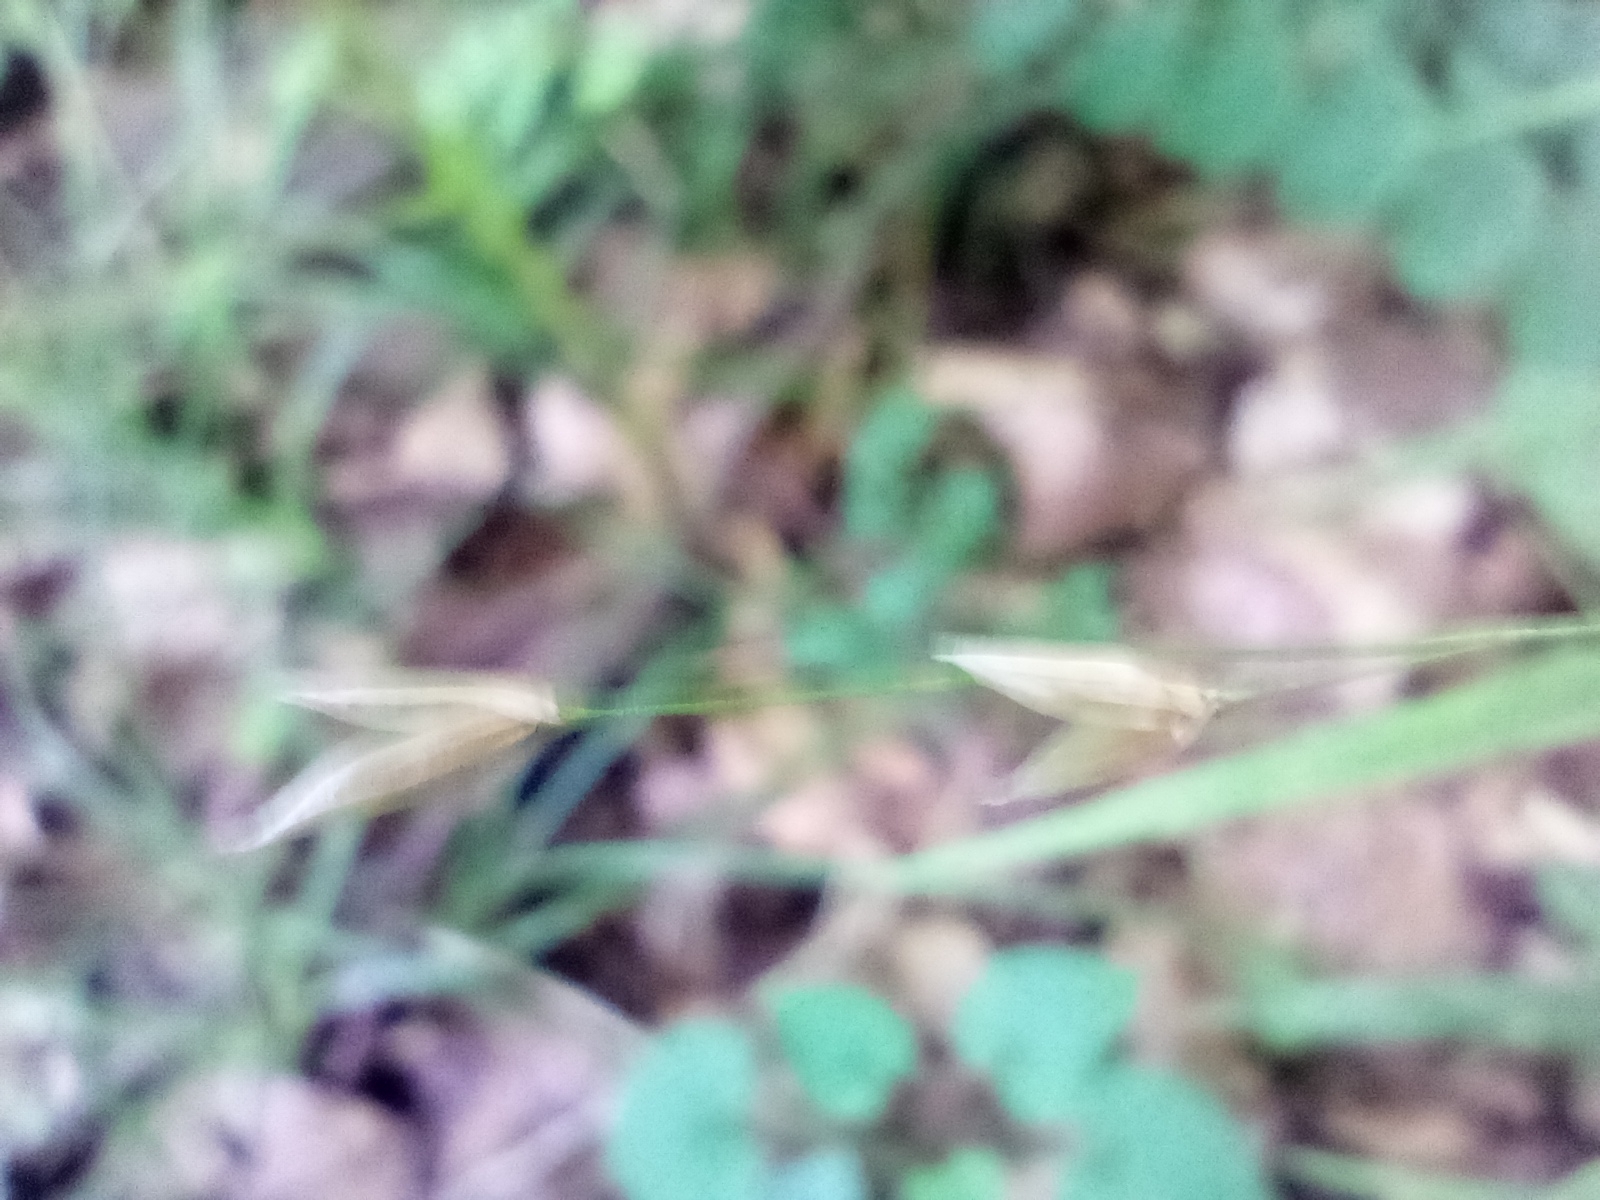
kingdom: Plantae
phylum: Tracheophyta
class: Liliopsida
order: Poales
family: Poaceae
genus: Melica
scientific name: Melica uniflora
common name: Wood melick
